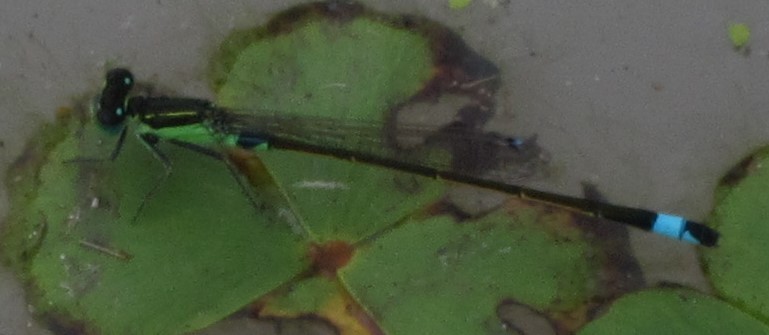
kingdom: Animalia
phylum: Arthropoda
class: Insecta
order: Odonata
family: Coenagrionidae
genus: Ischnura
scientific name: Ischnura senegalensis
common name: Tropical bluetail
